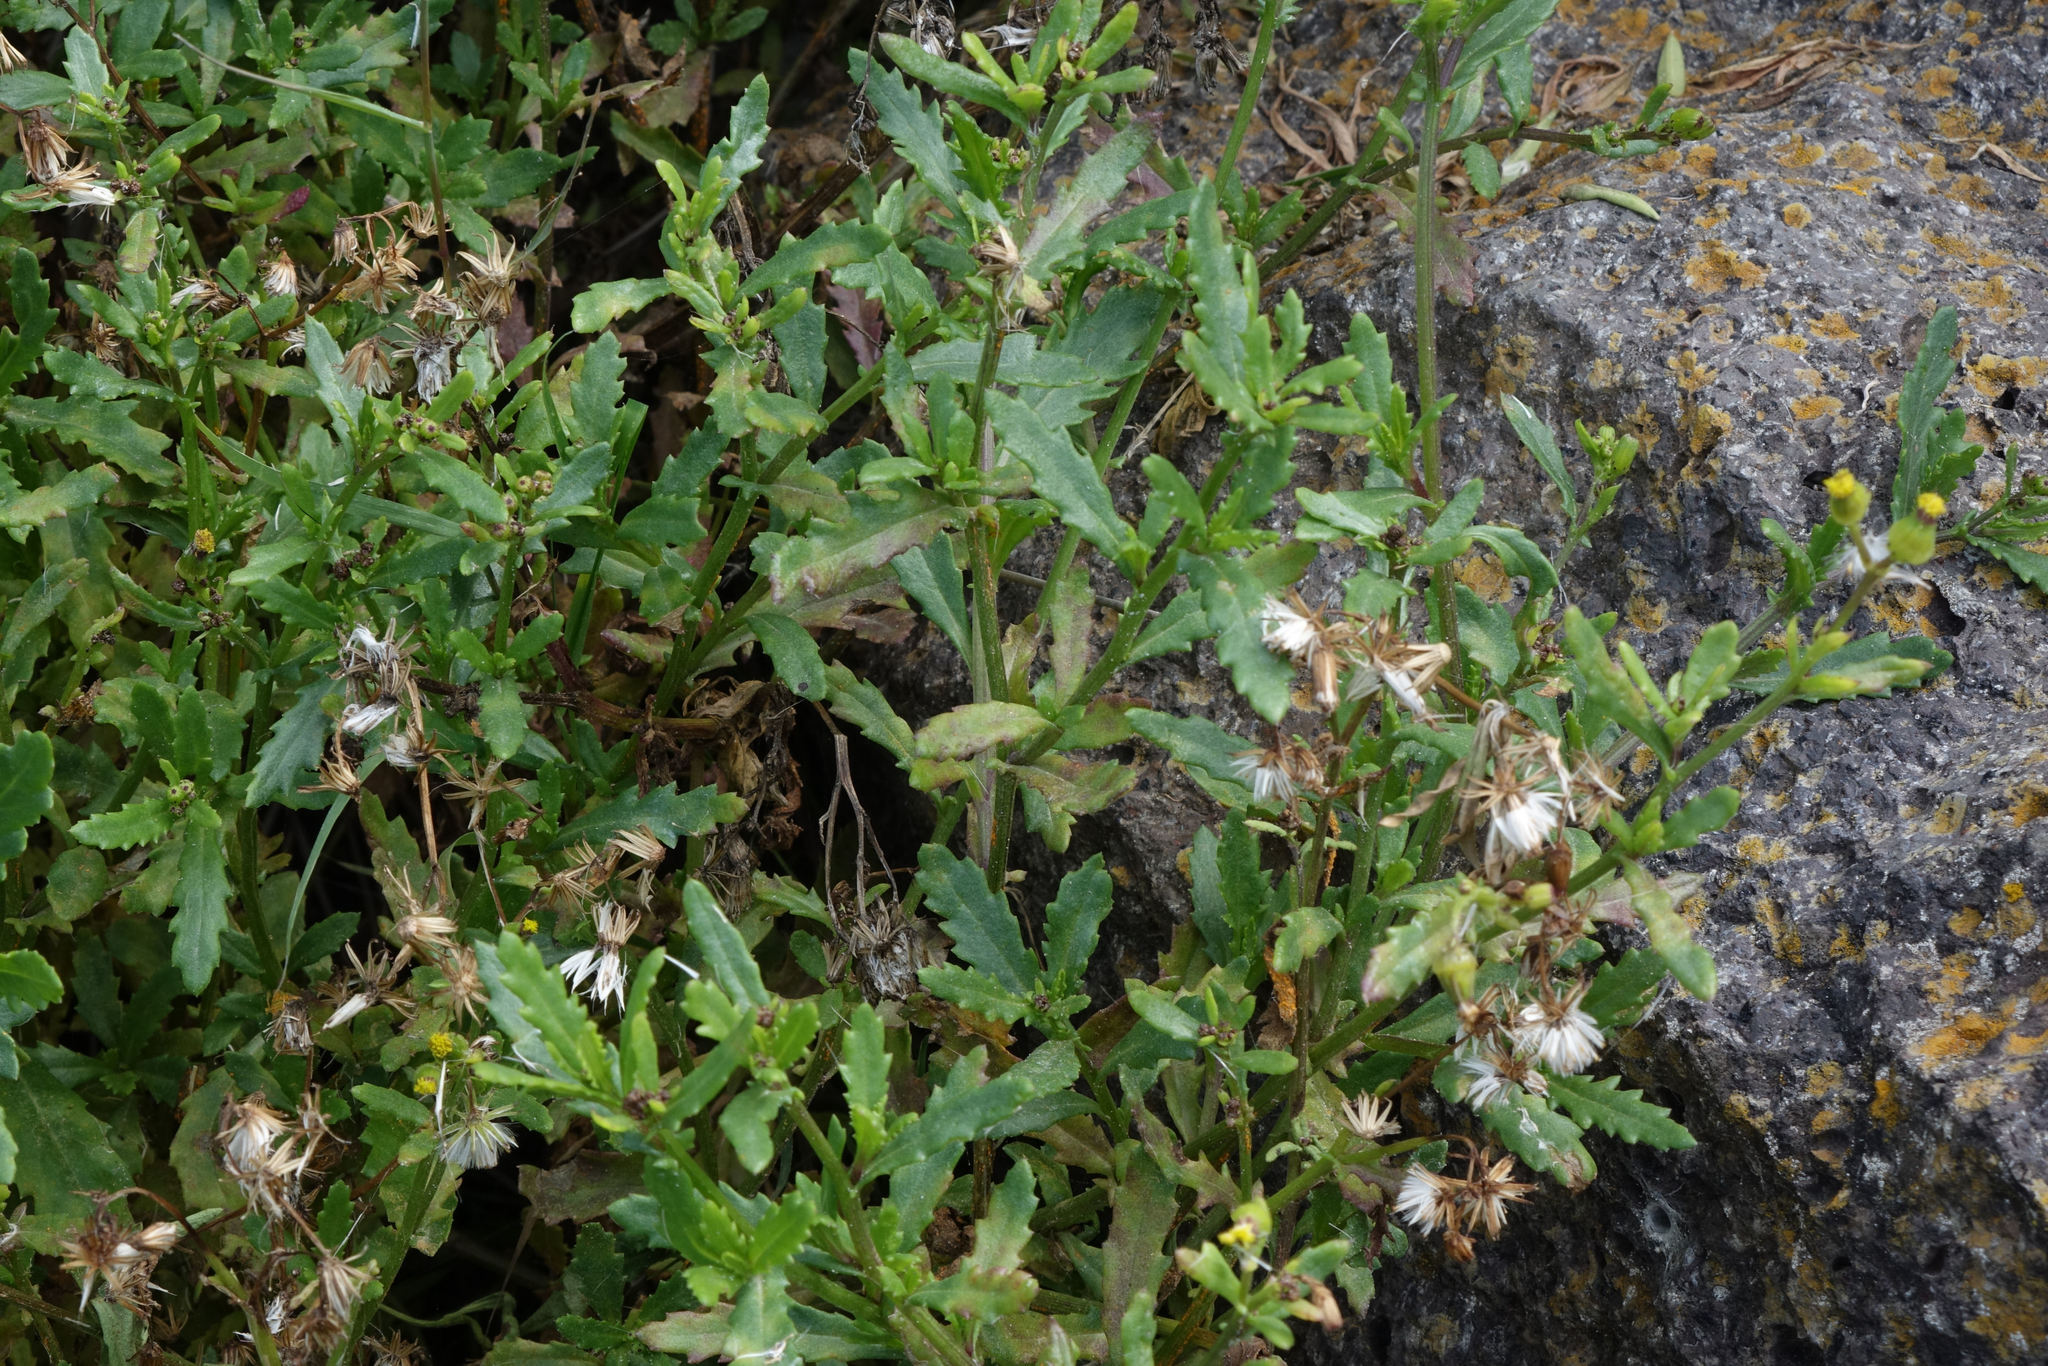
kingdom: Plantae
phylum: Tracheophyta
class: Magnoliopsida
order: Asterales
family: Asteraceae
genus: Senecio
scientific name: Senecio matatini
